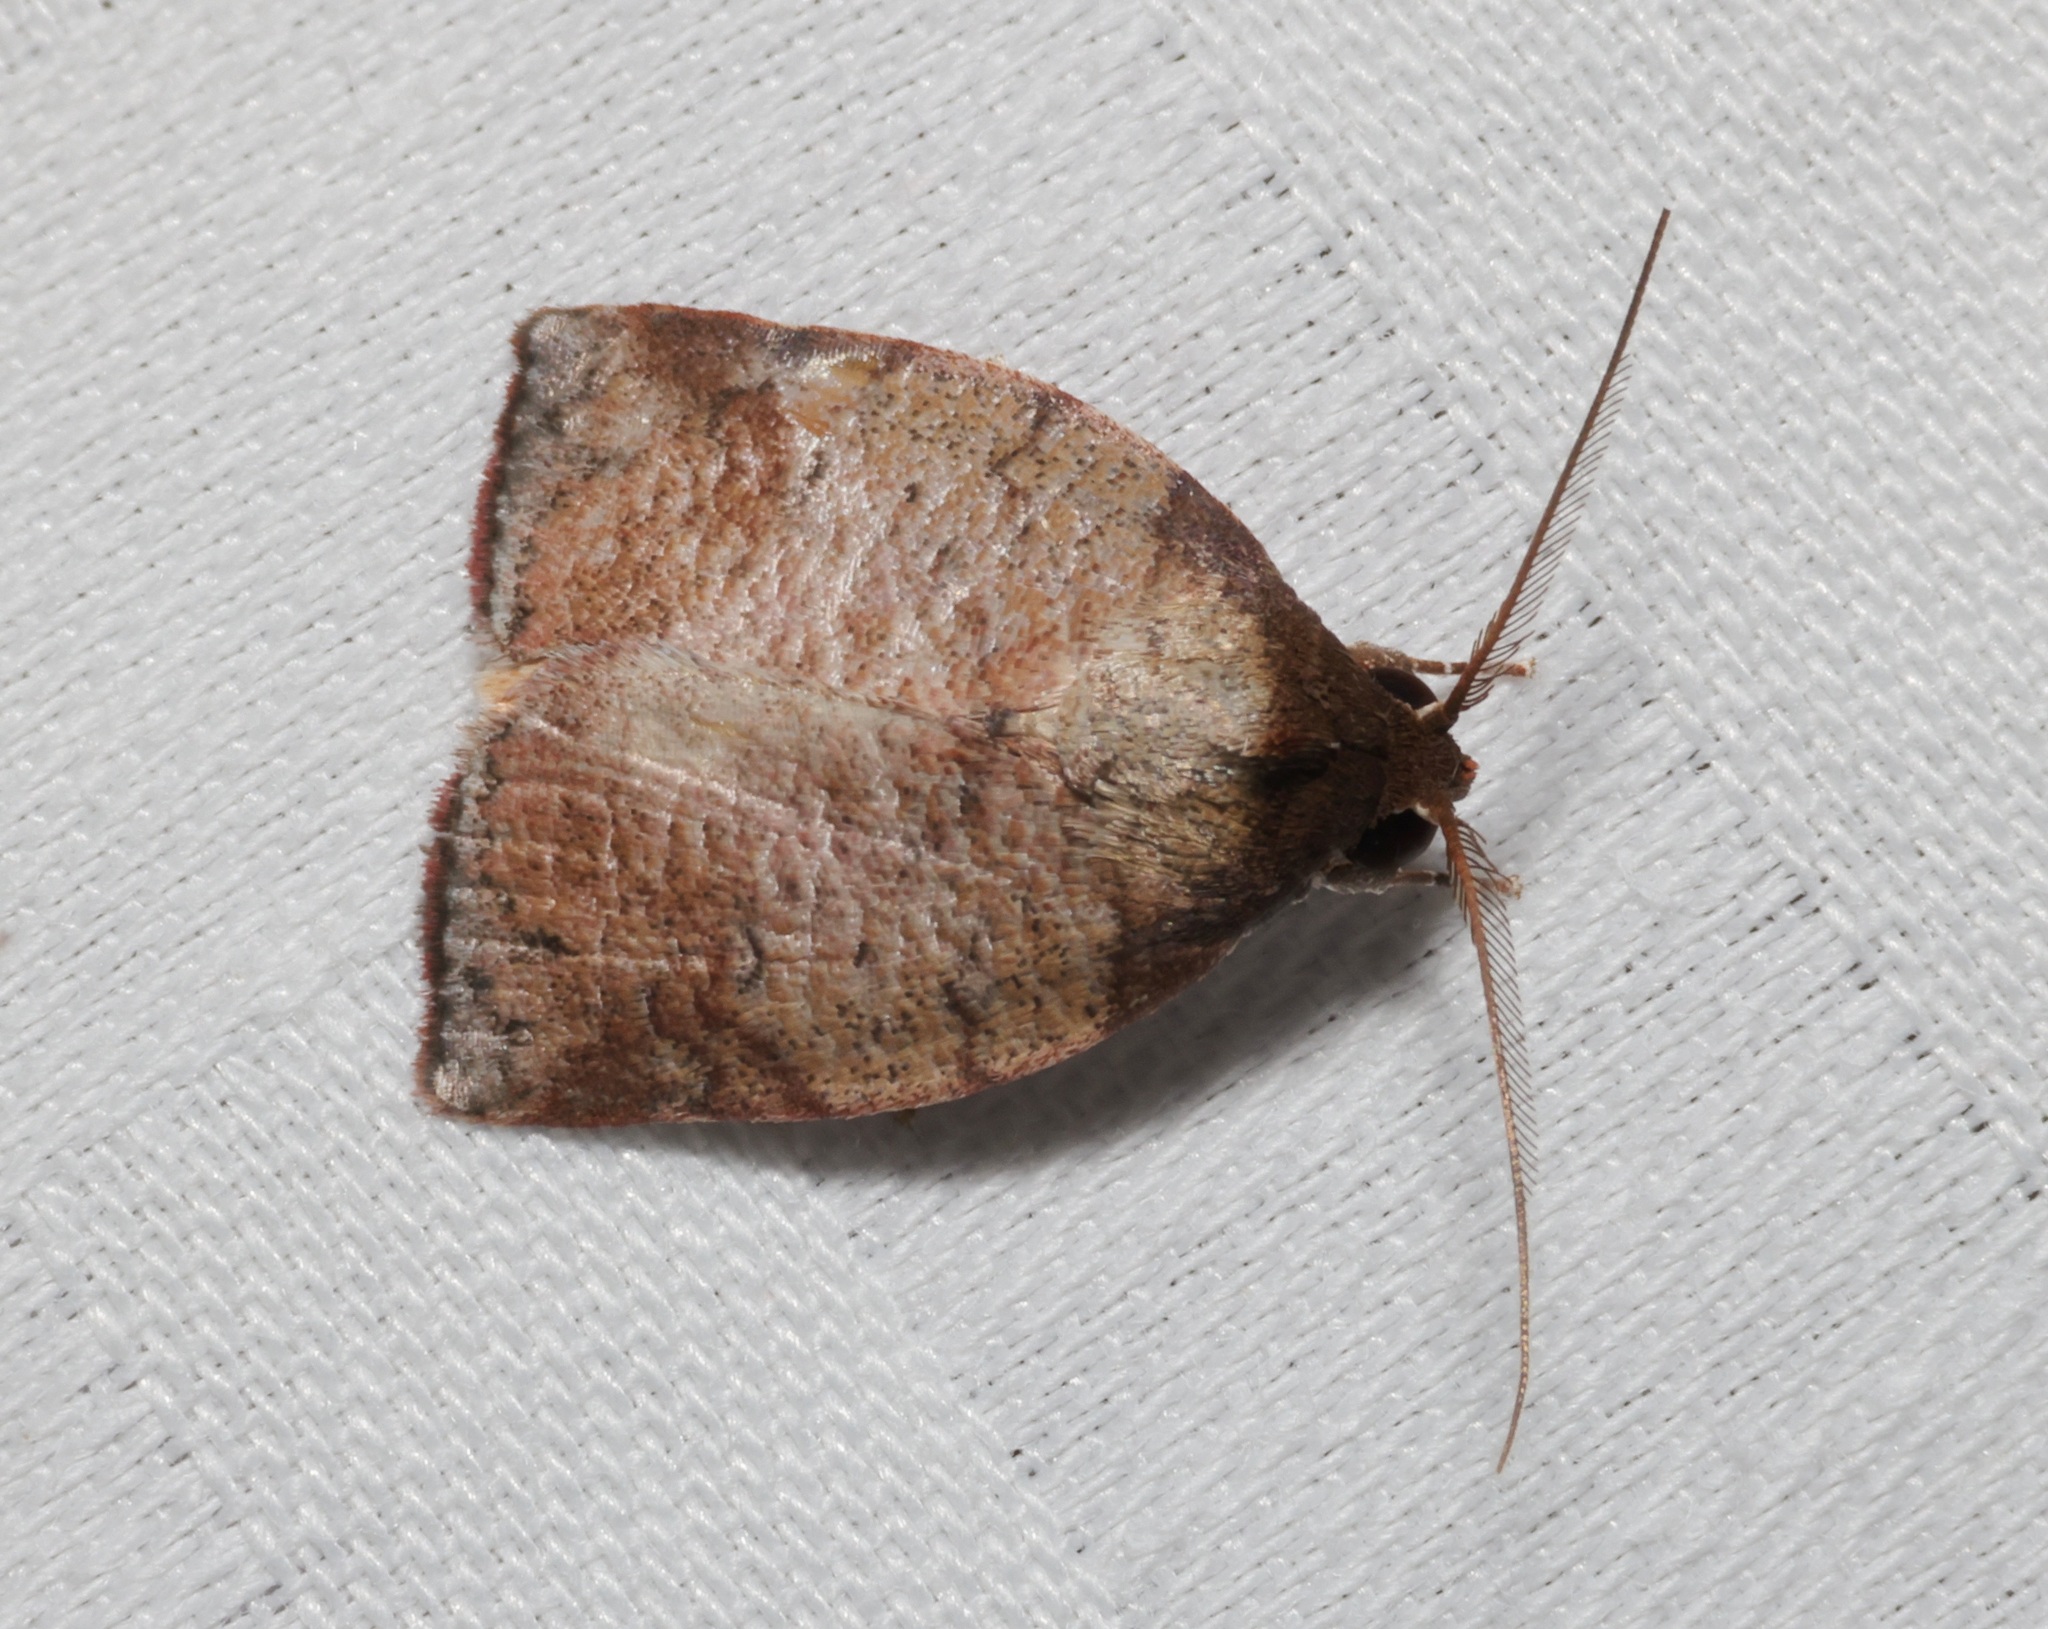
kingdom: Animalia
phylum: Arthropoda
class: Insecta
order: Lepidoptera
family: Nolidae
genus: Beara
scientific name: Beara tortriciformis
